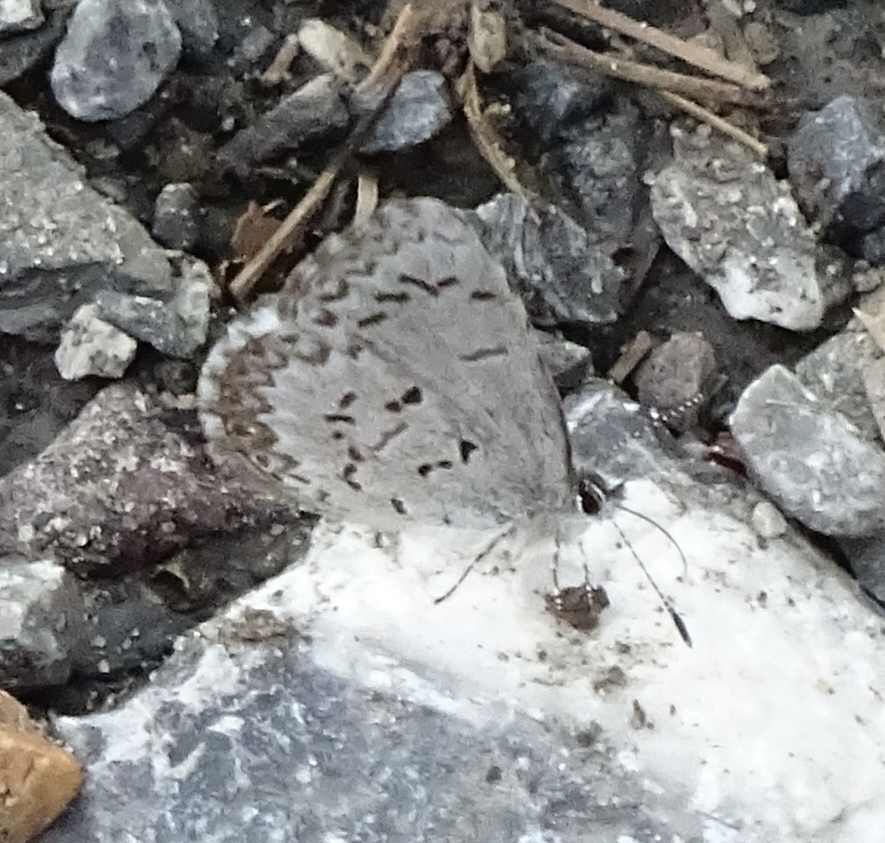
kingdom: Animalia
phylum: Arthropoda
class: Insecta
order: Lepidoptera
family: Lycaenidae
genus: Celastrina
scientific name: Celastrina lucia
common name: Lucia azure
